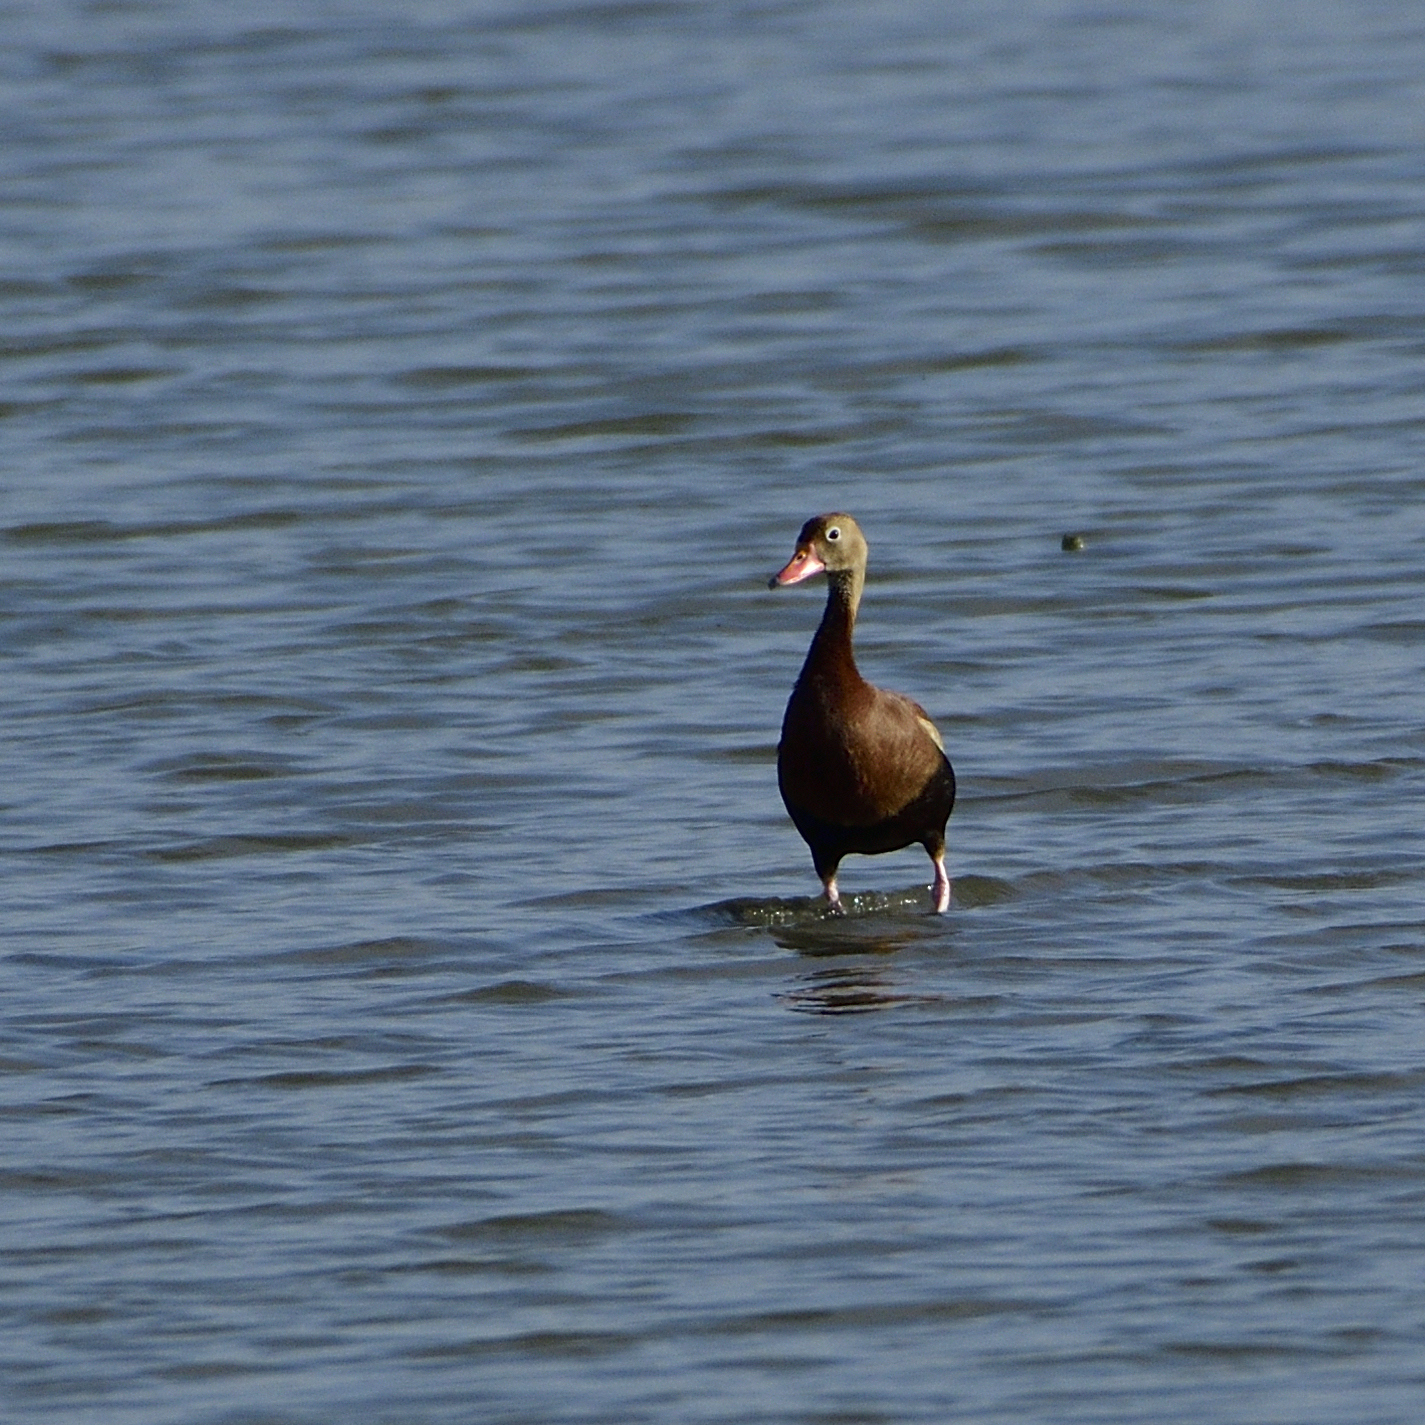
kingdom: Animalia
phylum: Chordata
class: Aves
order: Anseriformes
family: Anatidae
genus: Dendrocygna
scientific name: Dendrocygna autumnalis
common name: Black-bellied whistling duck
